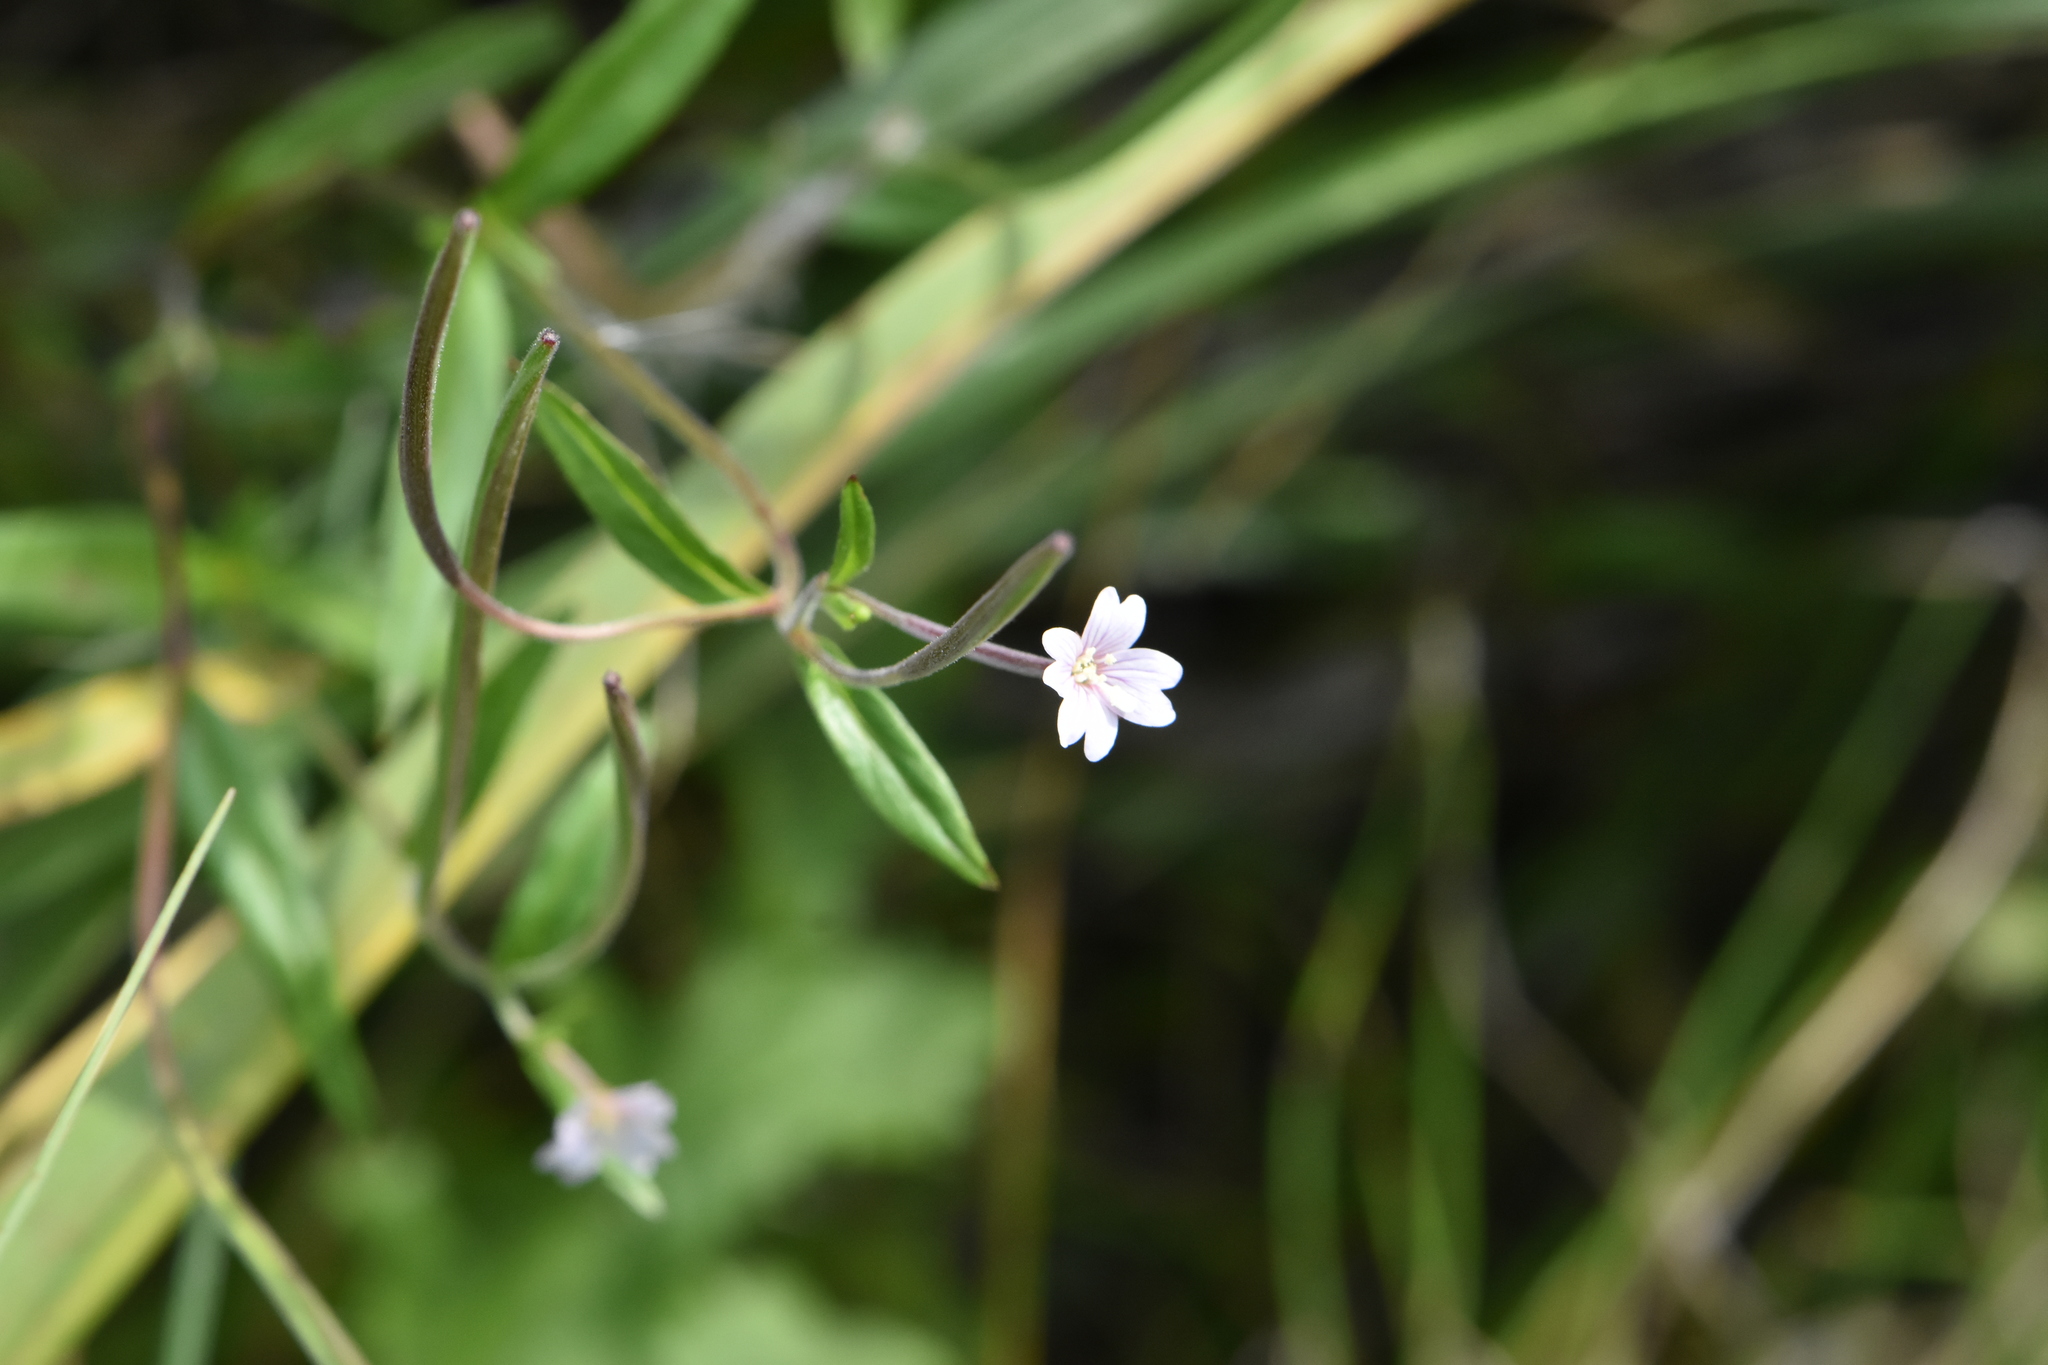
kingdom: Plantae
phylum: Tracheophyta
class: Magnoliopsida
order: Myrtales
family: Onagraceae
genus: Epilobium
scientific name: Epilobium palustre
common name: Marsh willowherb
